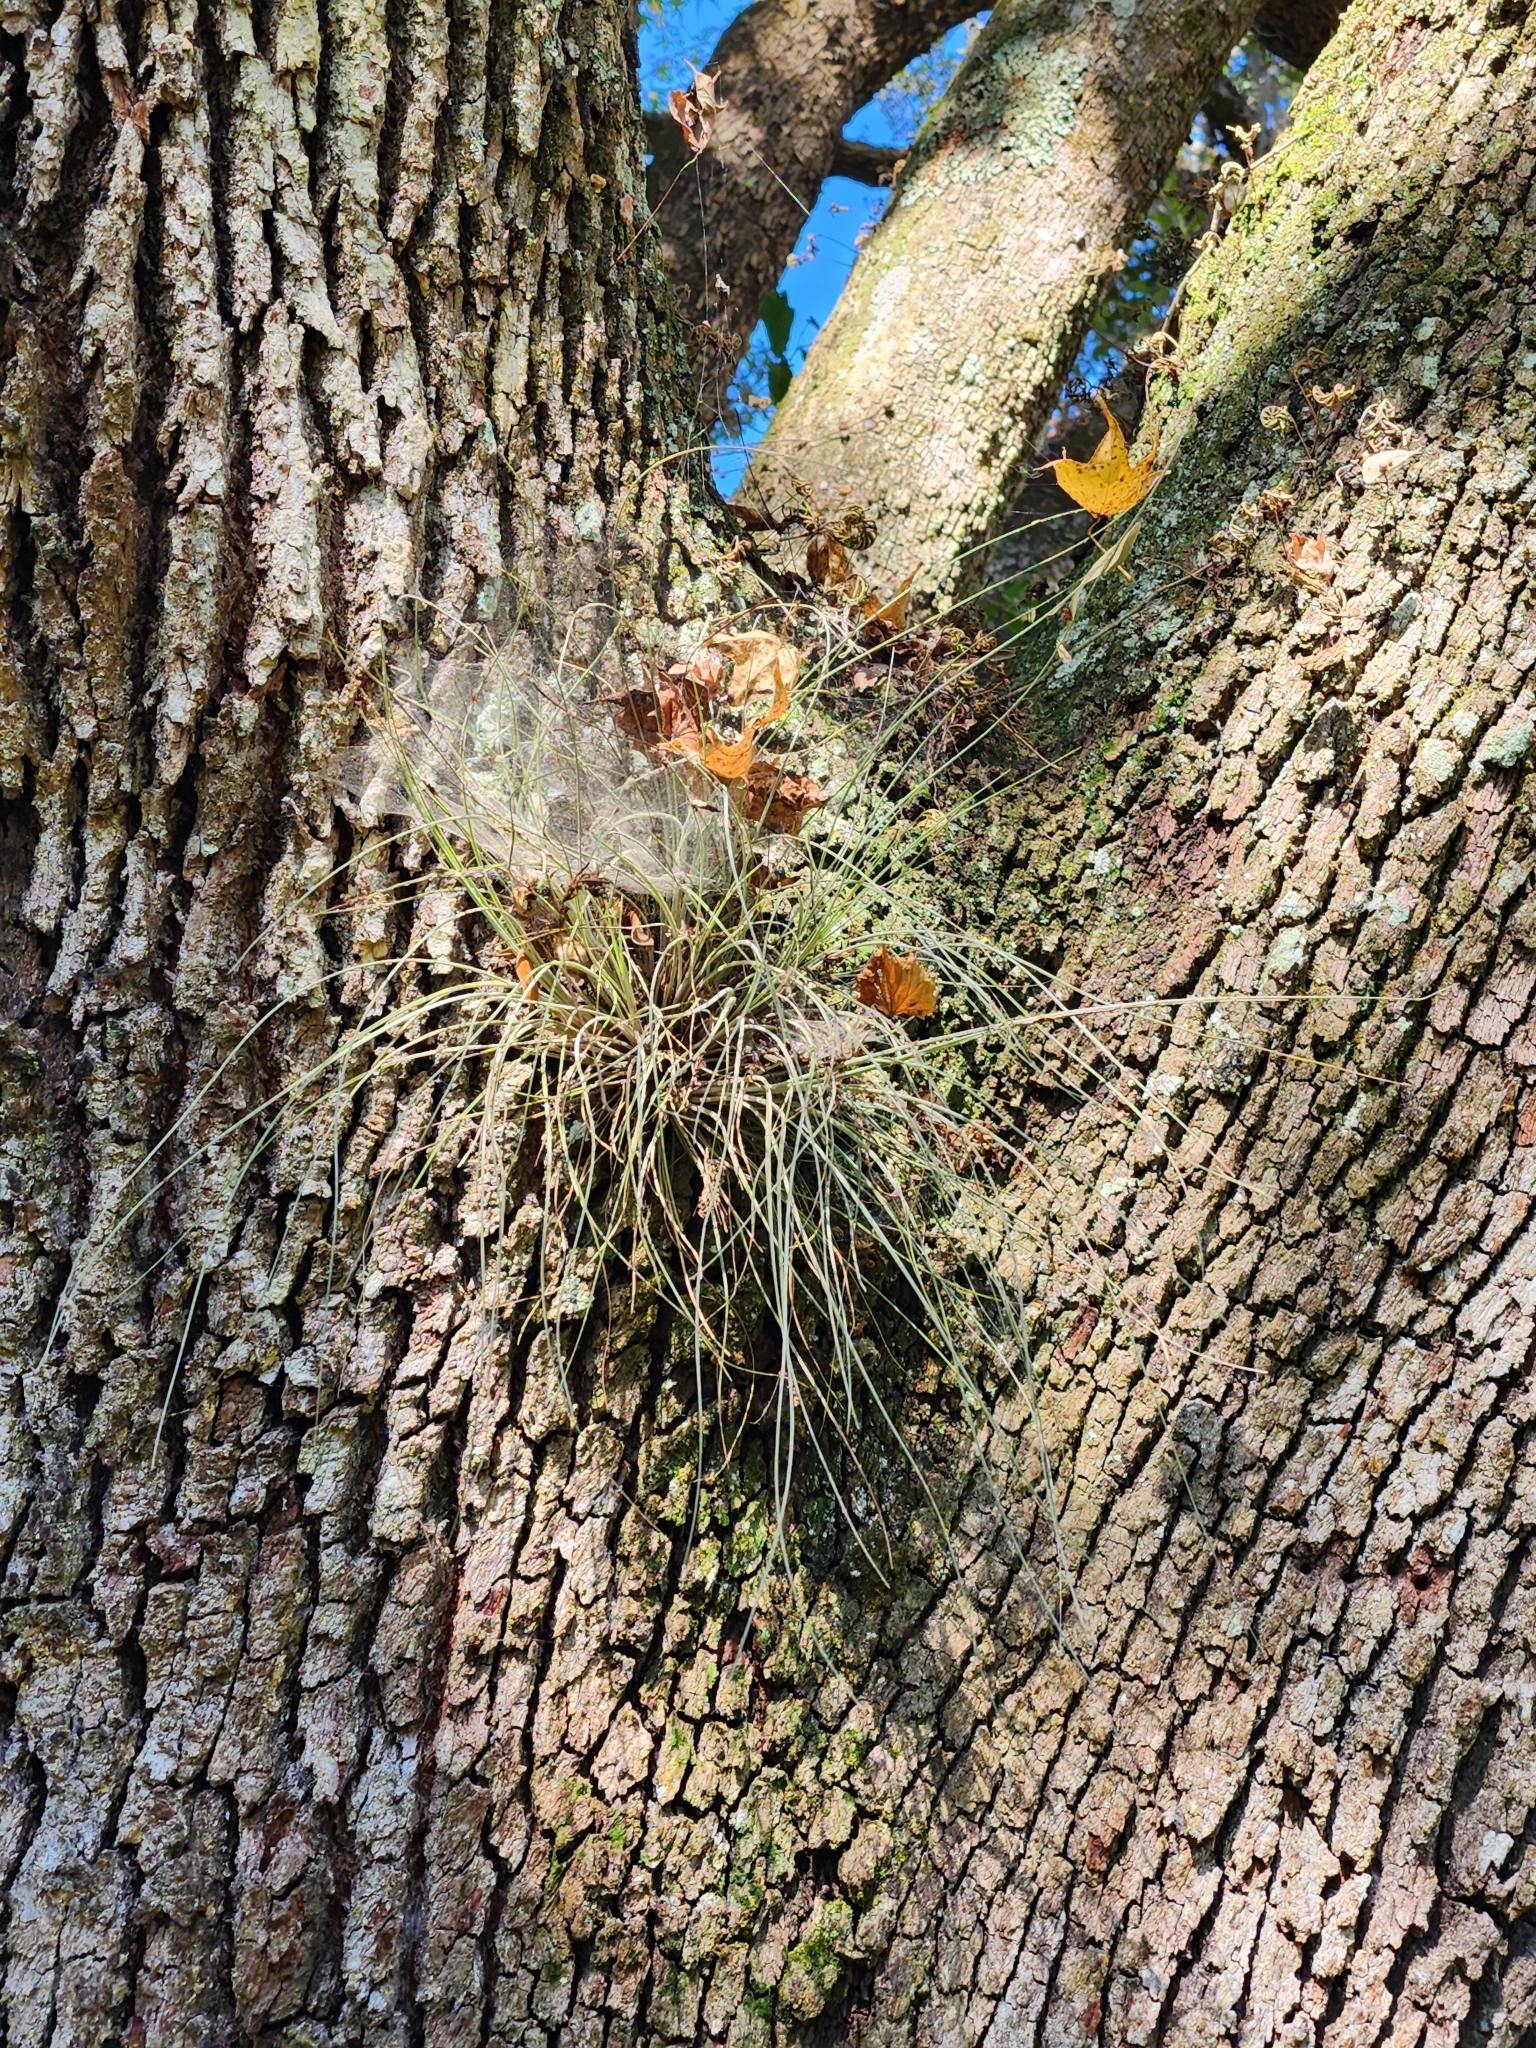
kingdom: Plantae
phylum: Tracheophyta
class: Liliopsida
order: Poales
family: Bromeliaceae
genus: Tillandsia
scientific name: Tillandsia bartramii
